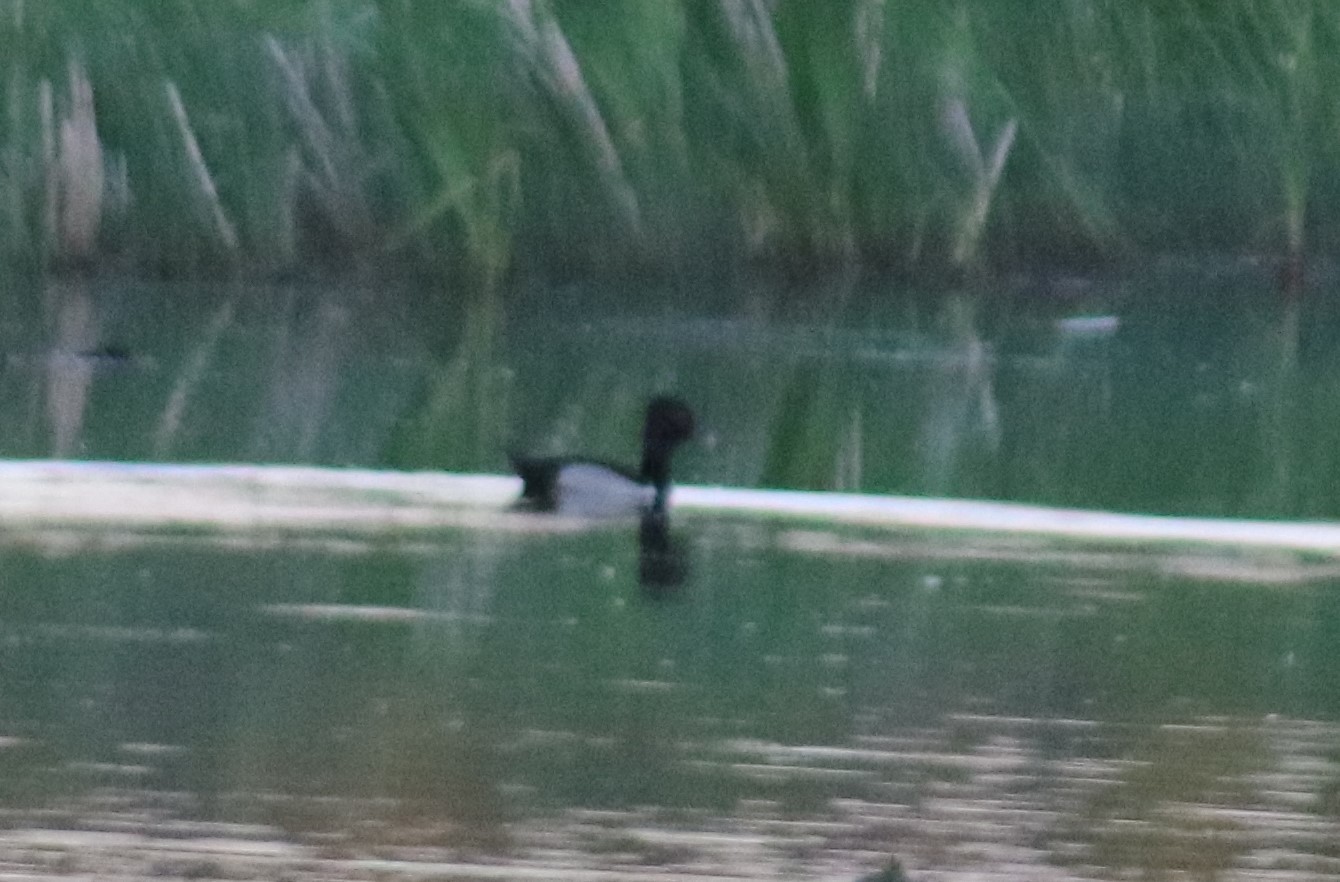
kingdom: Animalia
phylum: Chordata
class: Aves
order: Anseriformes
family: Anatidae
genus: Aythya
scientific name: Aythya collaris
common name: Ring-necked duck
